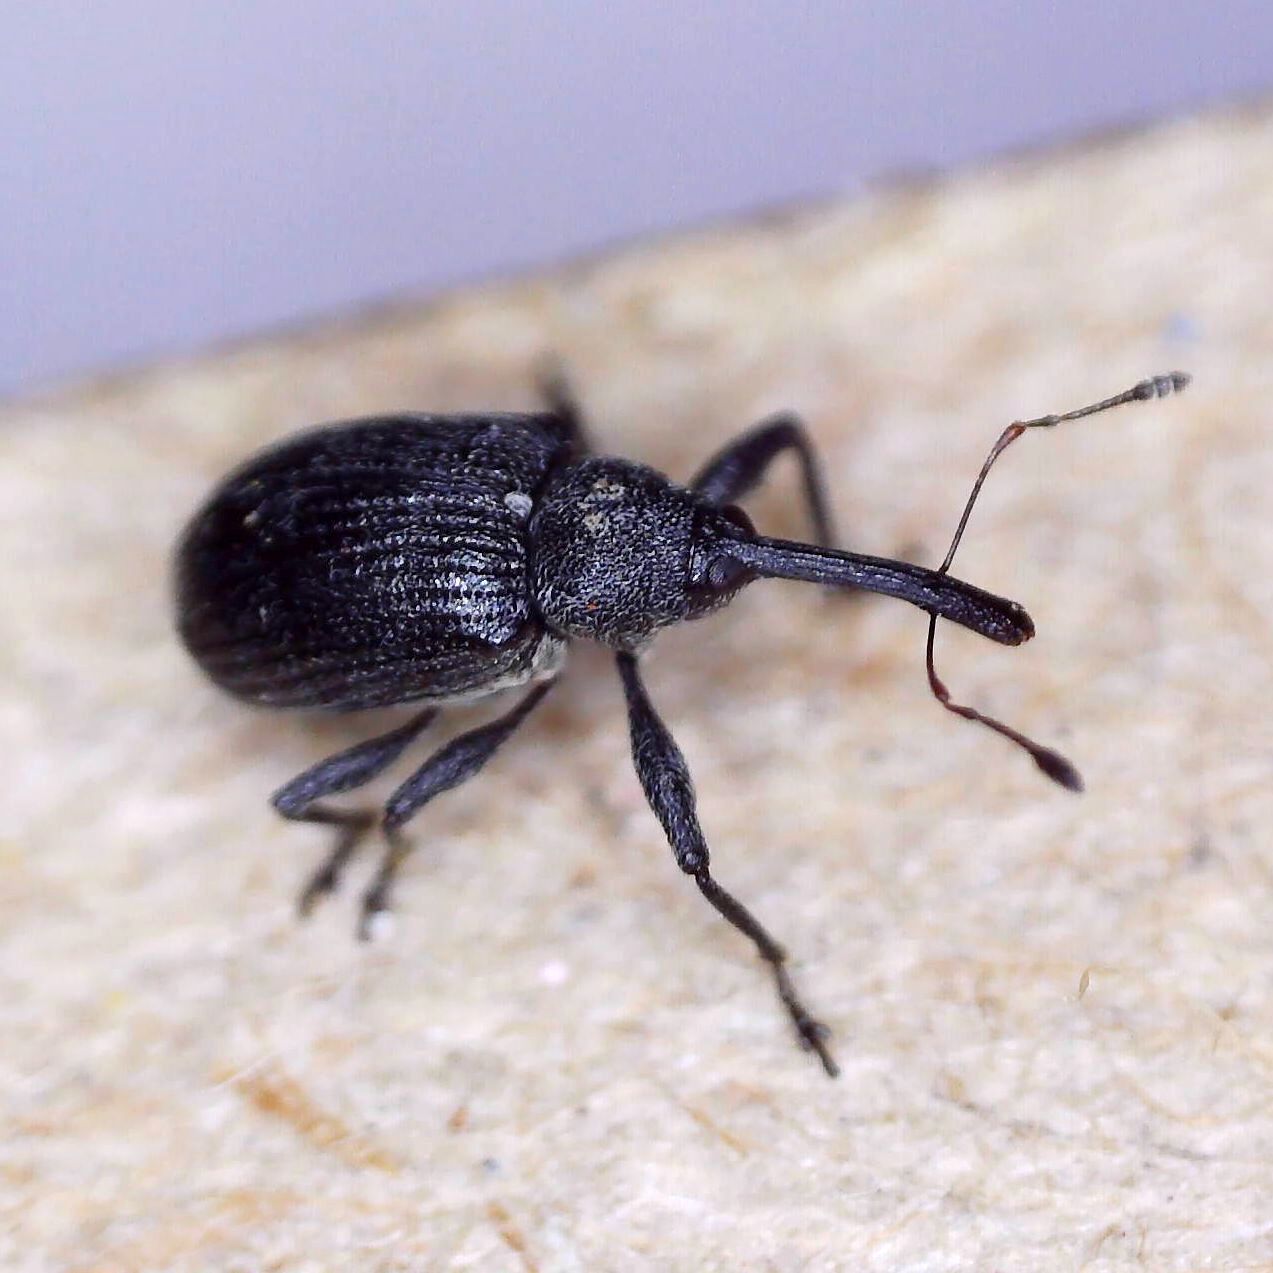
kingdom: Animalia
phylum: Arthropoda
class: Insecta
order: Coleoptera
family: Curculionidae
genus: Anthonomus
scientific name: Anthonomus rubi
